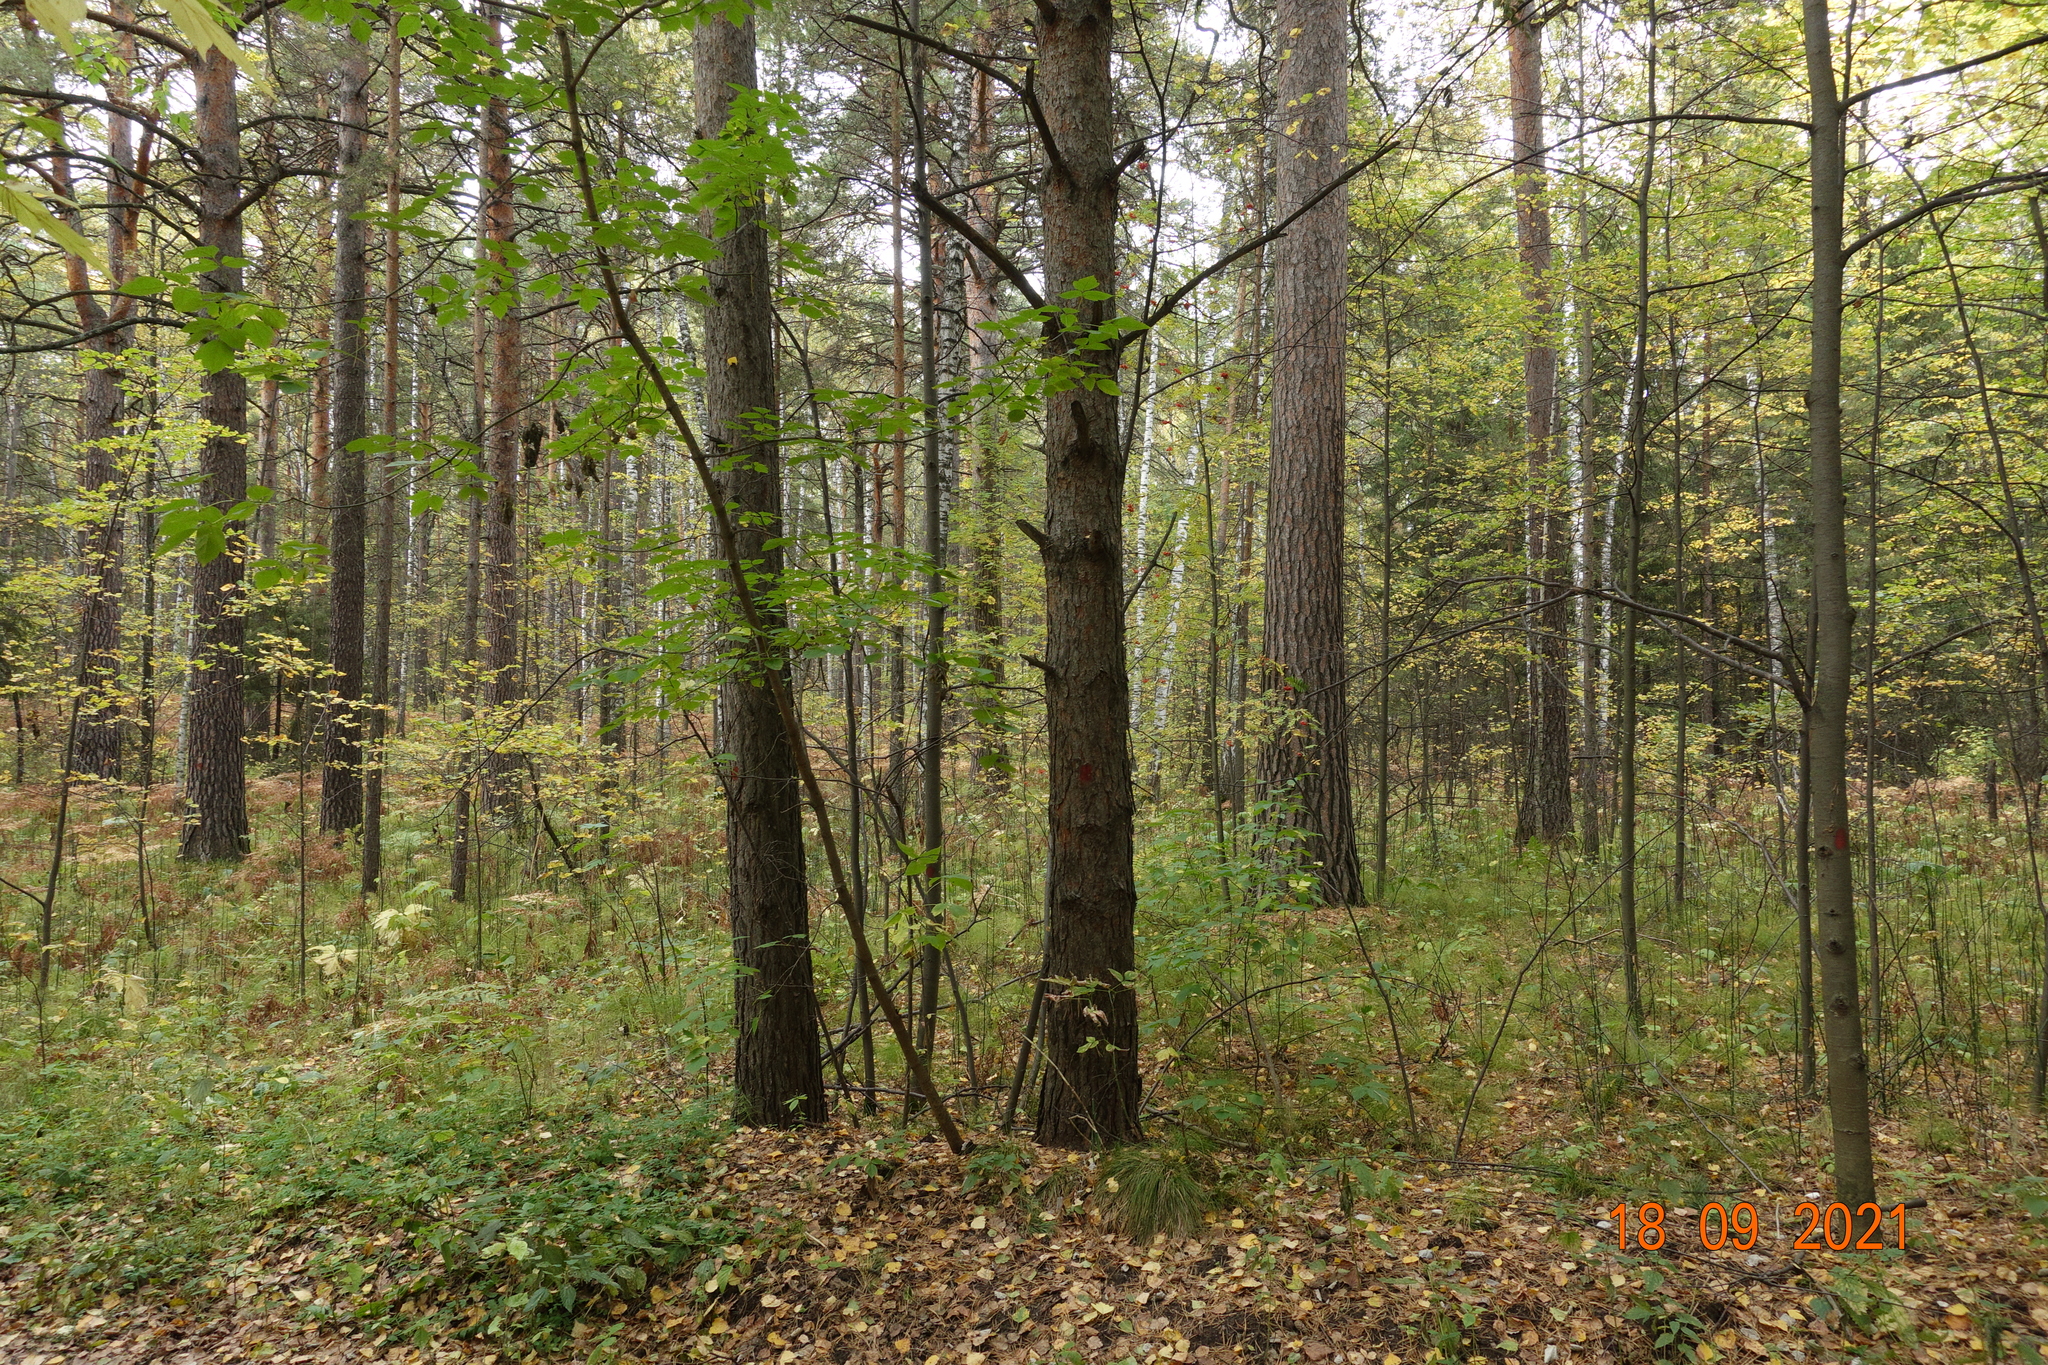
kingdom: Plantae
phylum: Tracheophyta
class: Pinopsida
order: Pinales
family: Pinaceae
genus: Pinus
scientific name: Pinus sylvestris
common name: Scots pine
